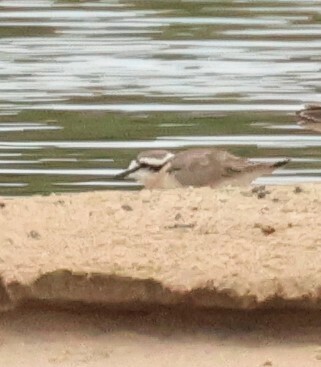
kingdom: Animalia
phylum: Chordata
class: Aves
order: Charadriiformes
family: Charadriidae
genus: Anarhynchus
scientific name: Anarhynchus
